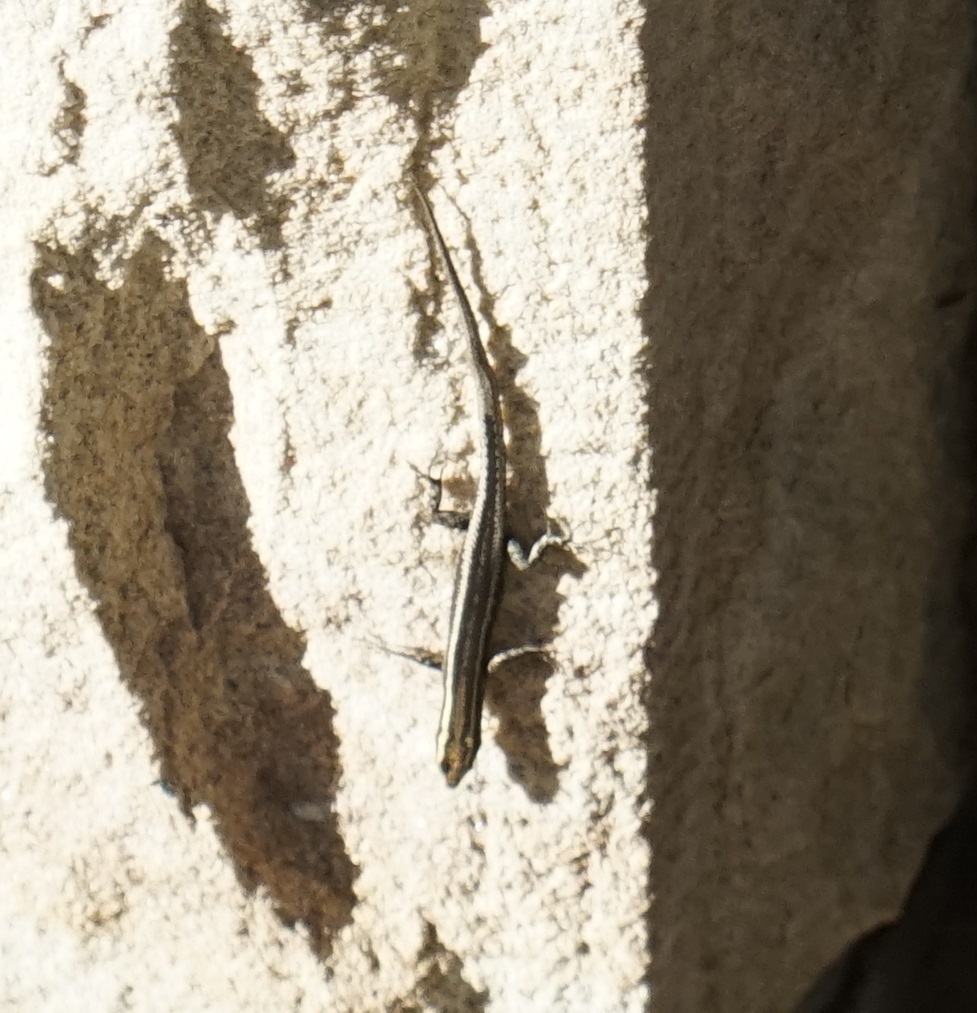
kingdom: Animalia
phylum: Chordata
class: Squamata
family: Scincidae
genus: Cryptoblepharus
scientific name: Cryptoblepharus pulcher
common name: Elegant snake-eyed skink
